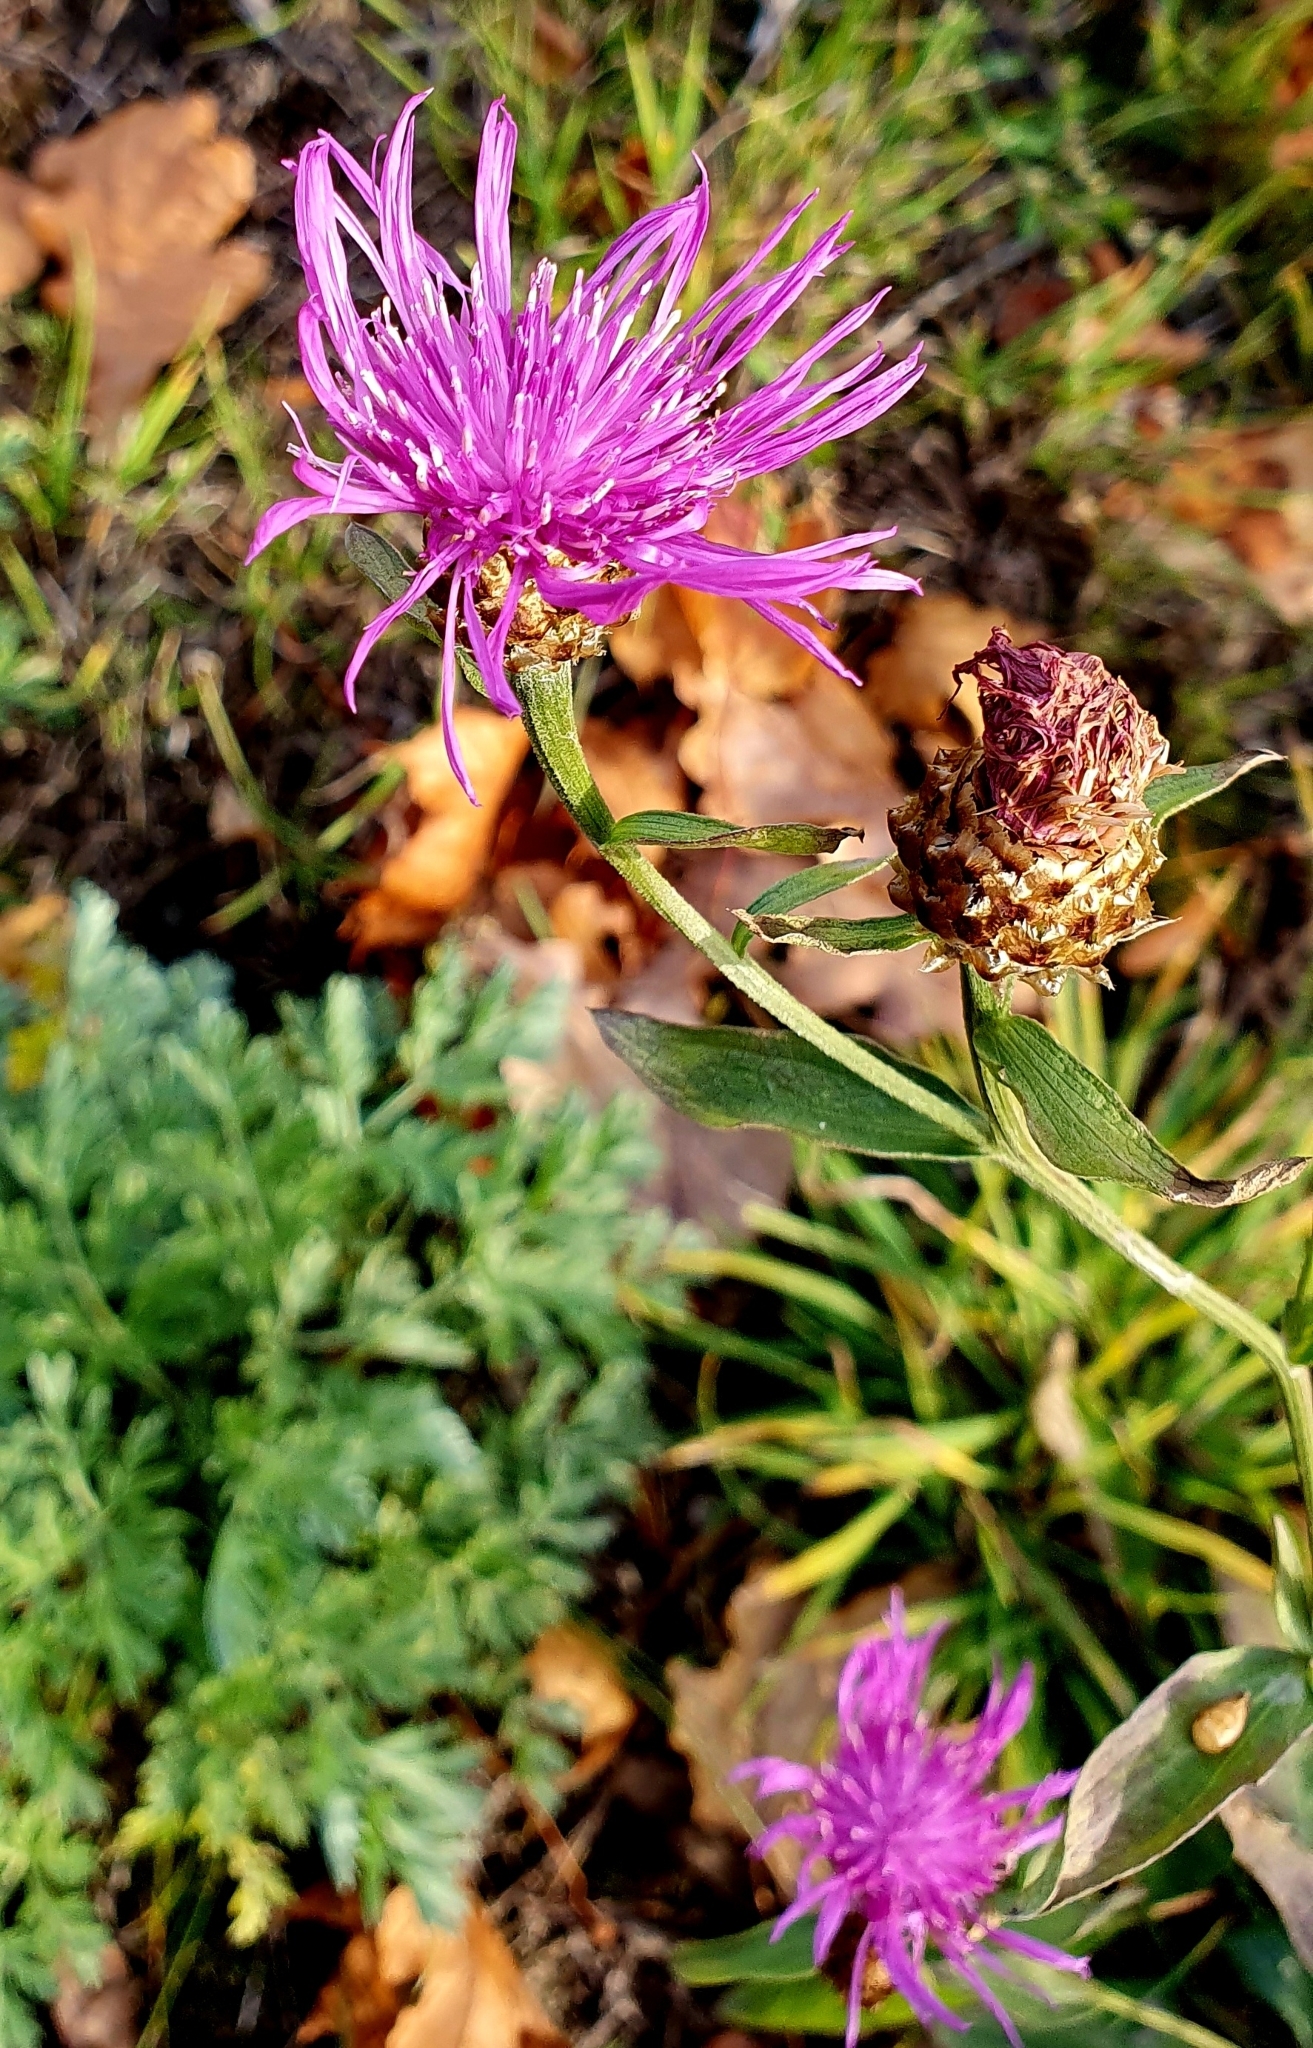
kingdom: Plantae
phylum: Tracheophyta
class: Magnoliopsida
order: Asterales
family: Asteraceae
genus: Centaurea
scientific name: Centaurea jacea
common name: Brown knapweed
